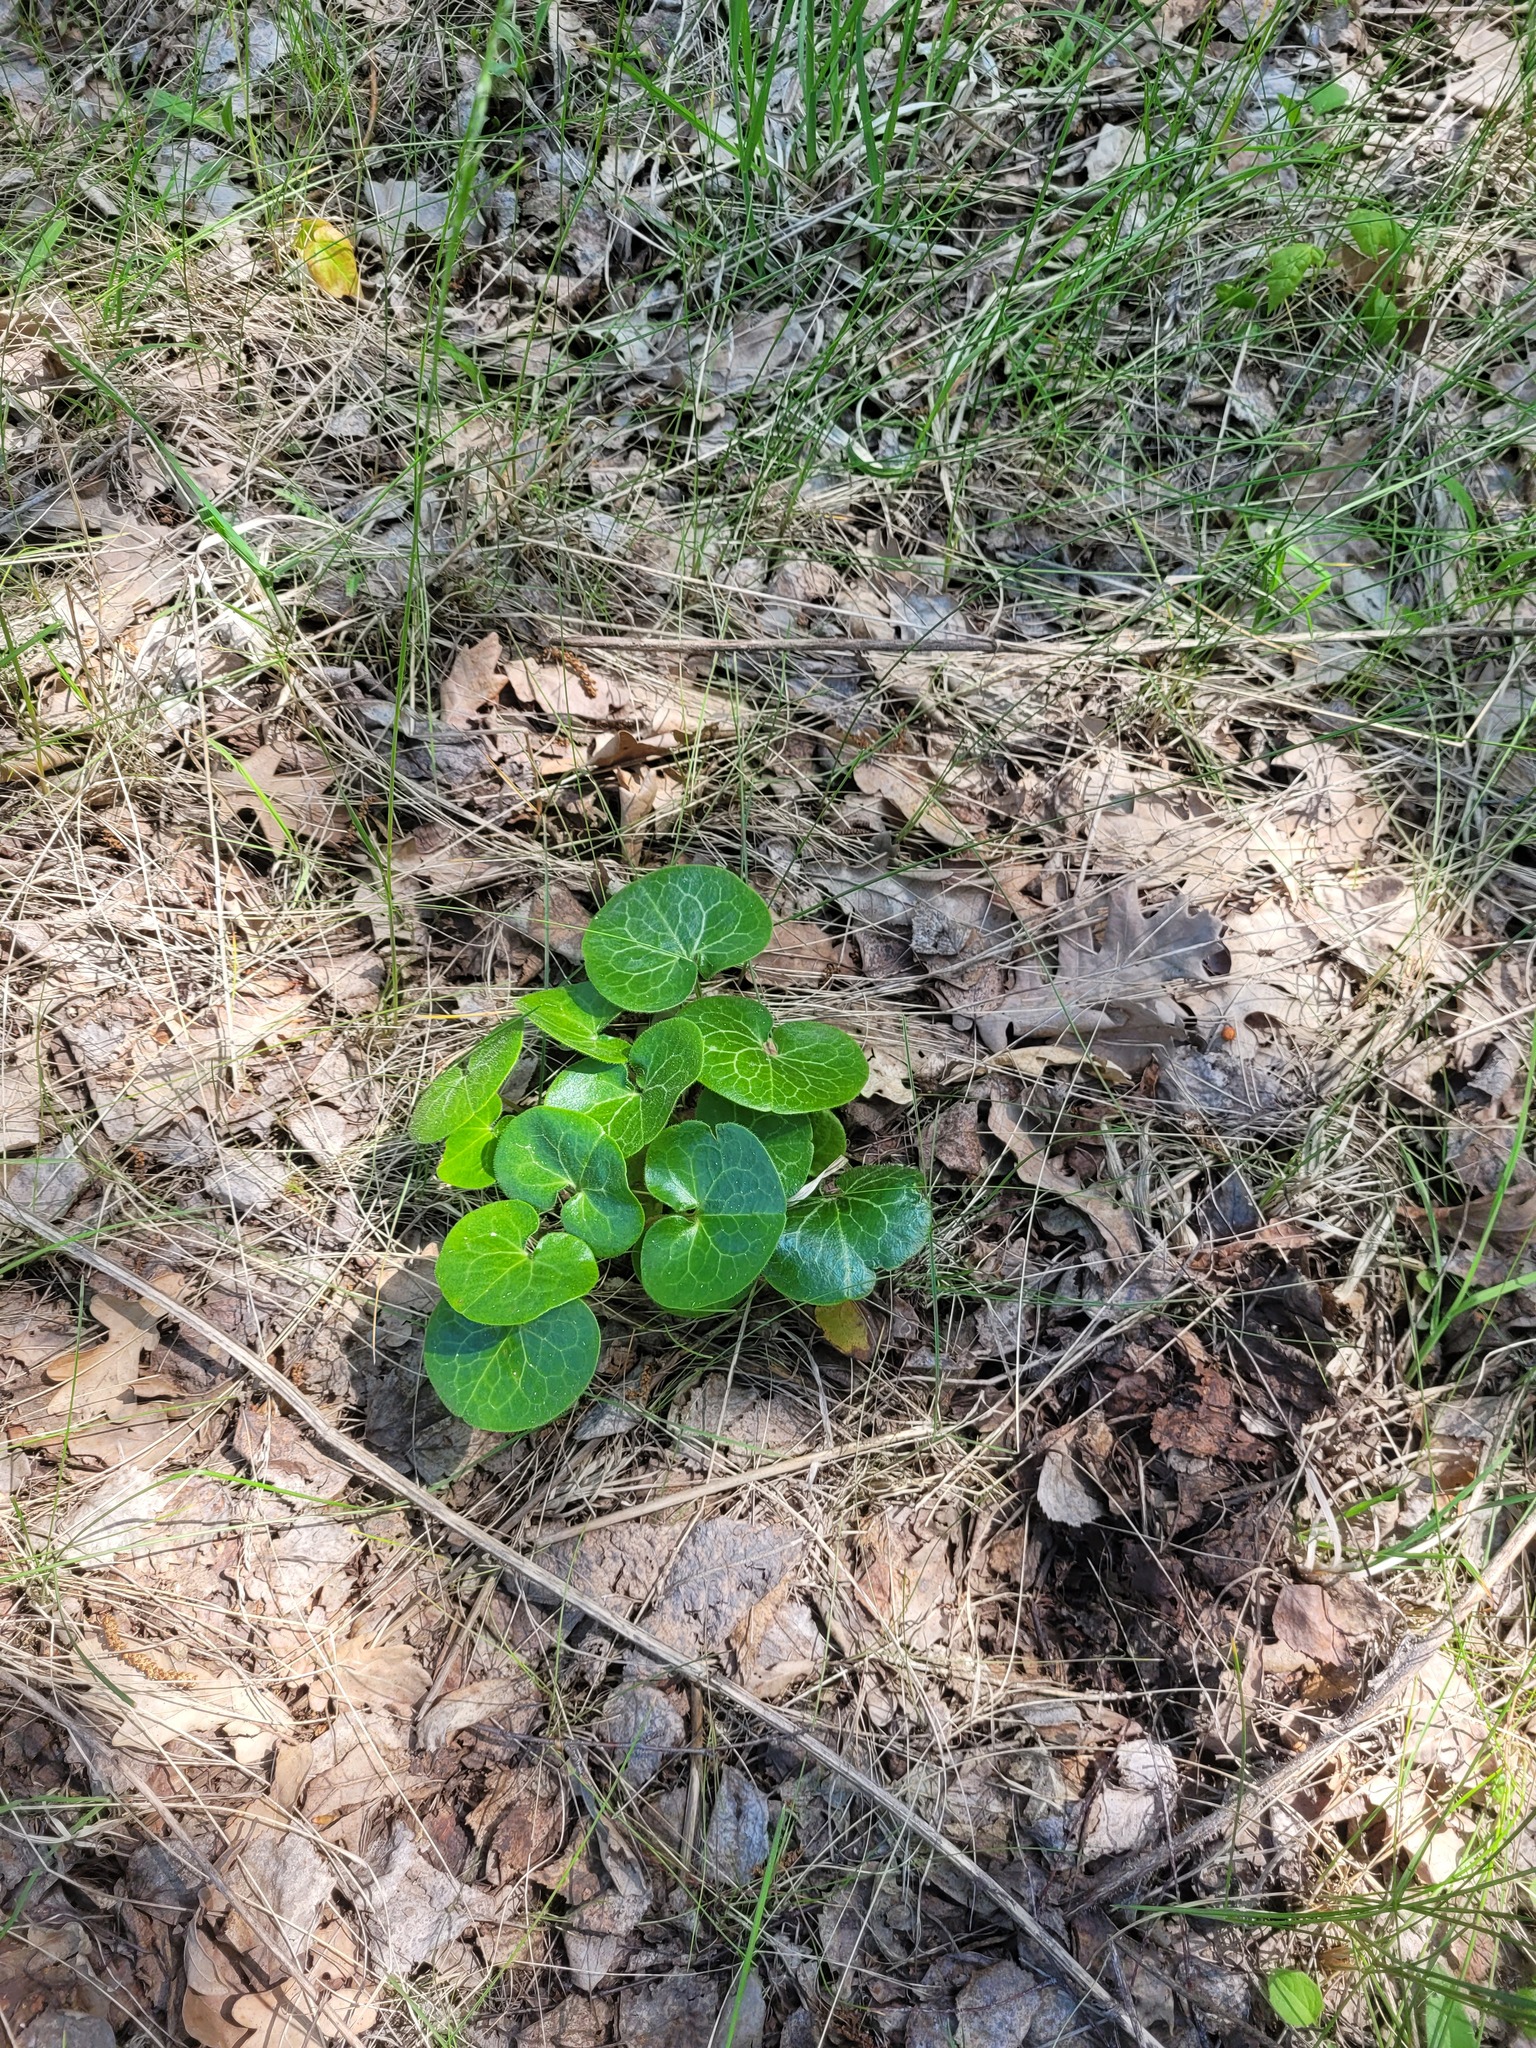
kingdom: Plantae
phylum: Tracheophyta
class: Magnoliopsida
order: Piperales
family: Aristolochiaceae
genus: Asarum
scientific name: Asarum europaeum
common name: Asarabacca
